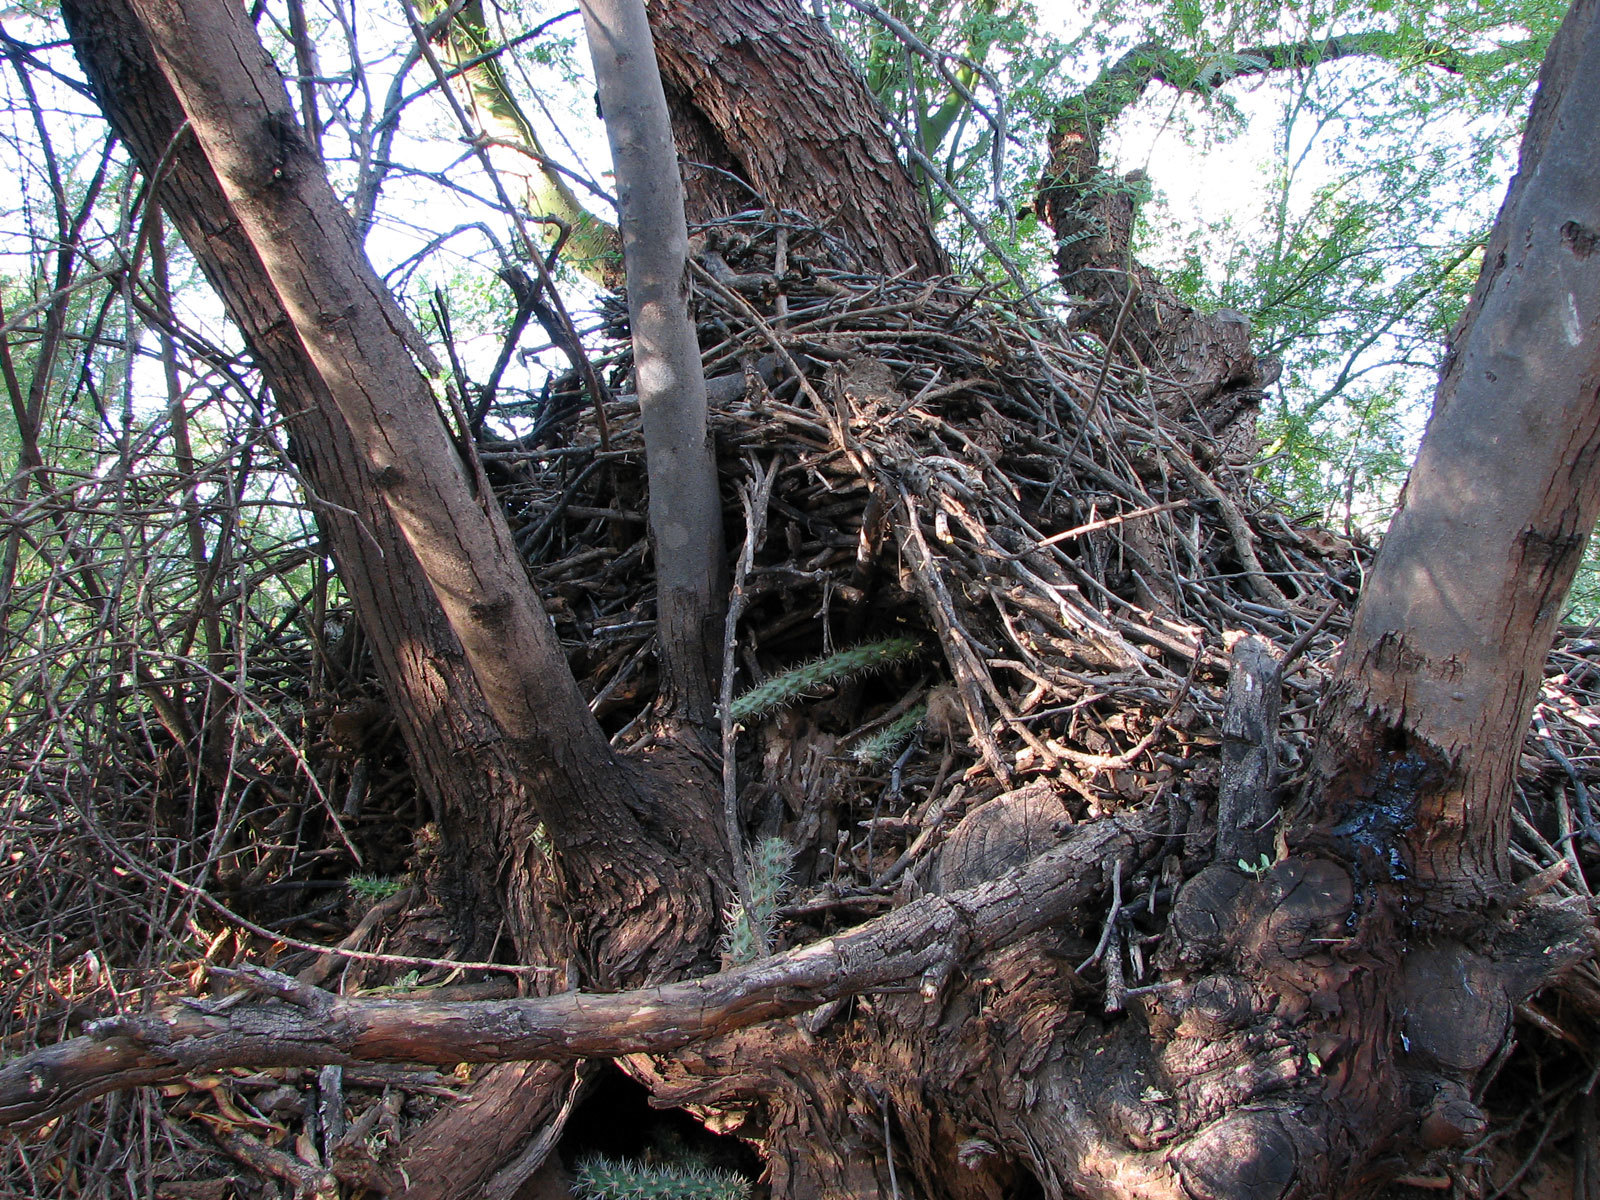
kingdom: Animalia
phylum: Chordata
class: Mammalia
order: Rodentia
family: Cricetidae
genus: Neotoma
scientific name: Neotoma albigula
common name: White-throated woodrat
